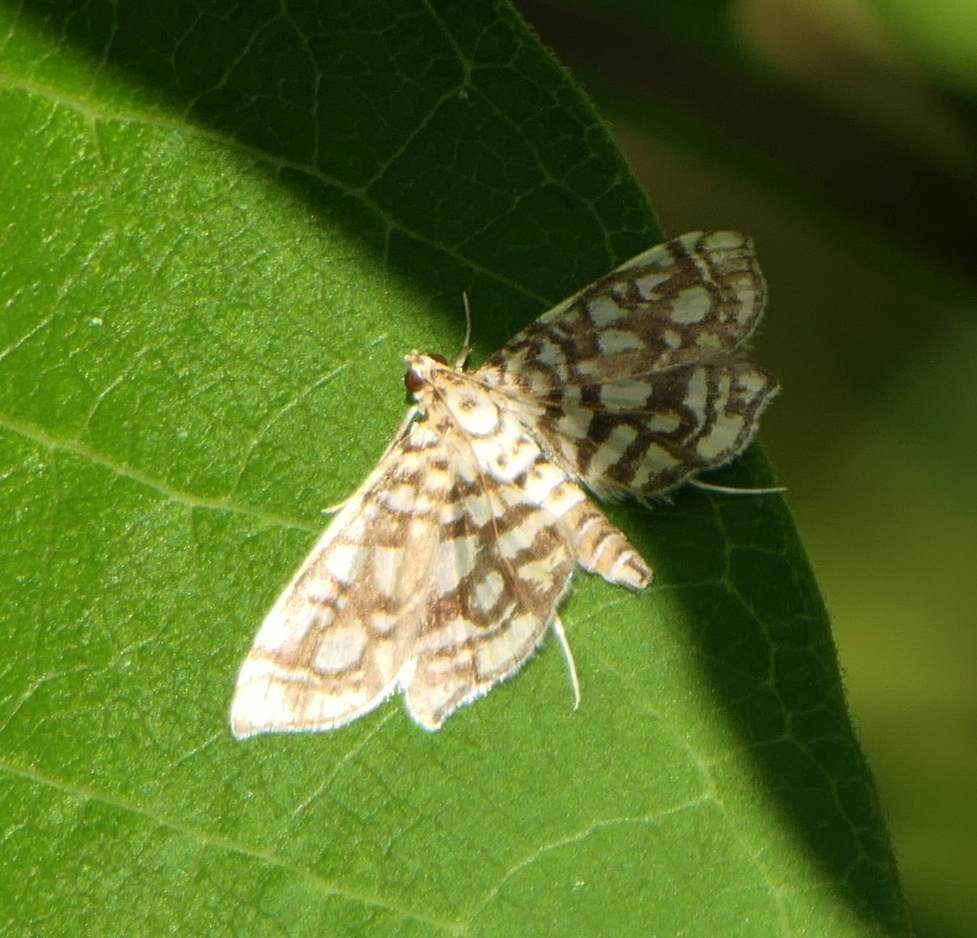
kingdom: Animalia
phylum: Arthropoda
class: Insecta
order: Lepidoptera
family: Crambidae
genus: Lygropia
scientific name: Lygropia rivulalis
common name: Bog lygropia moth
